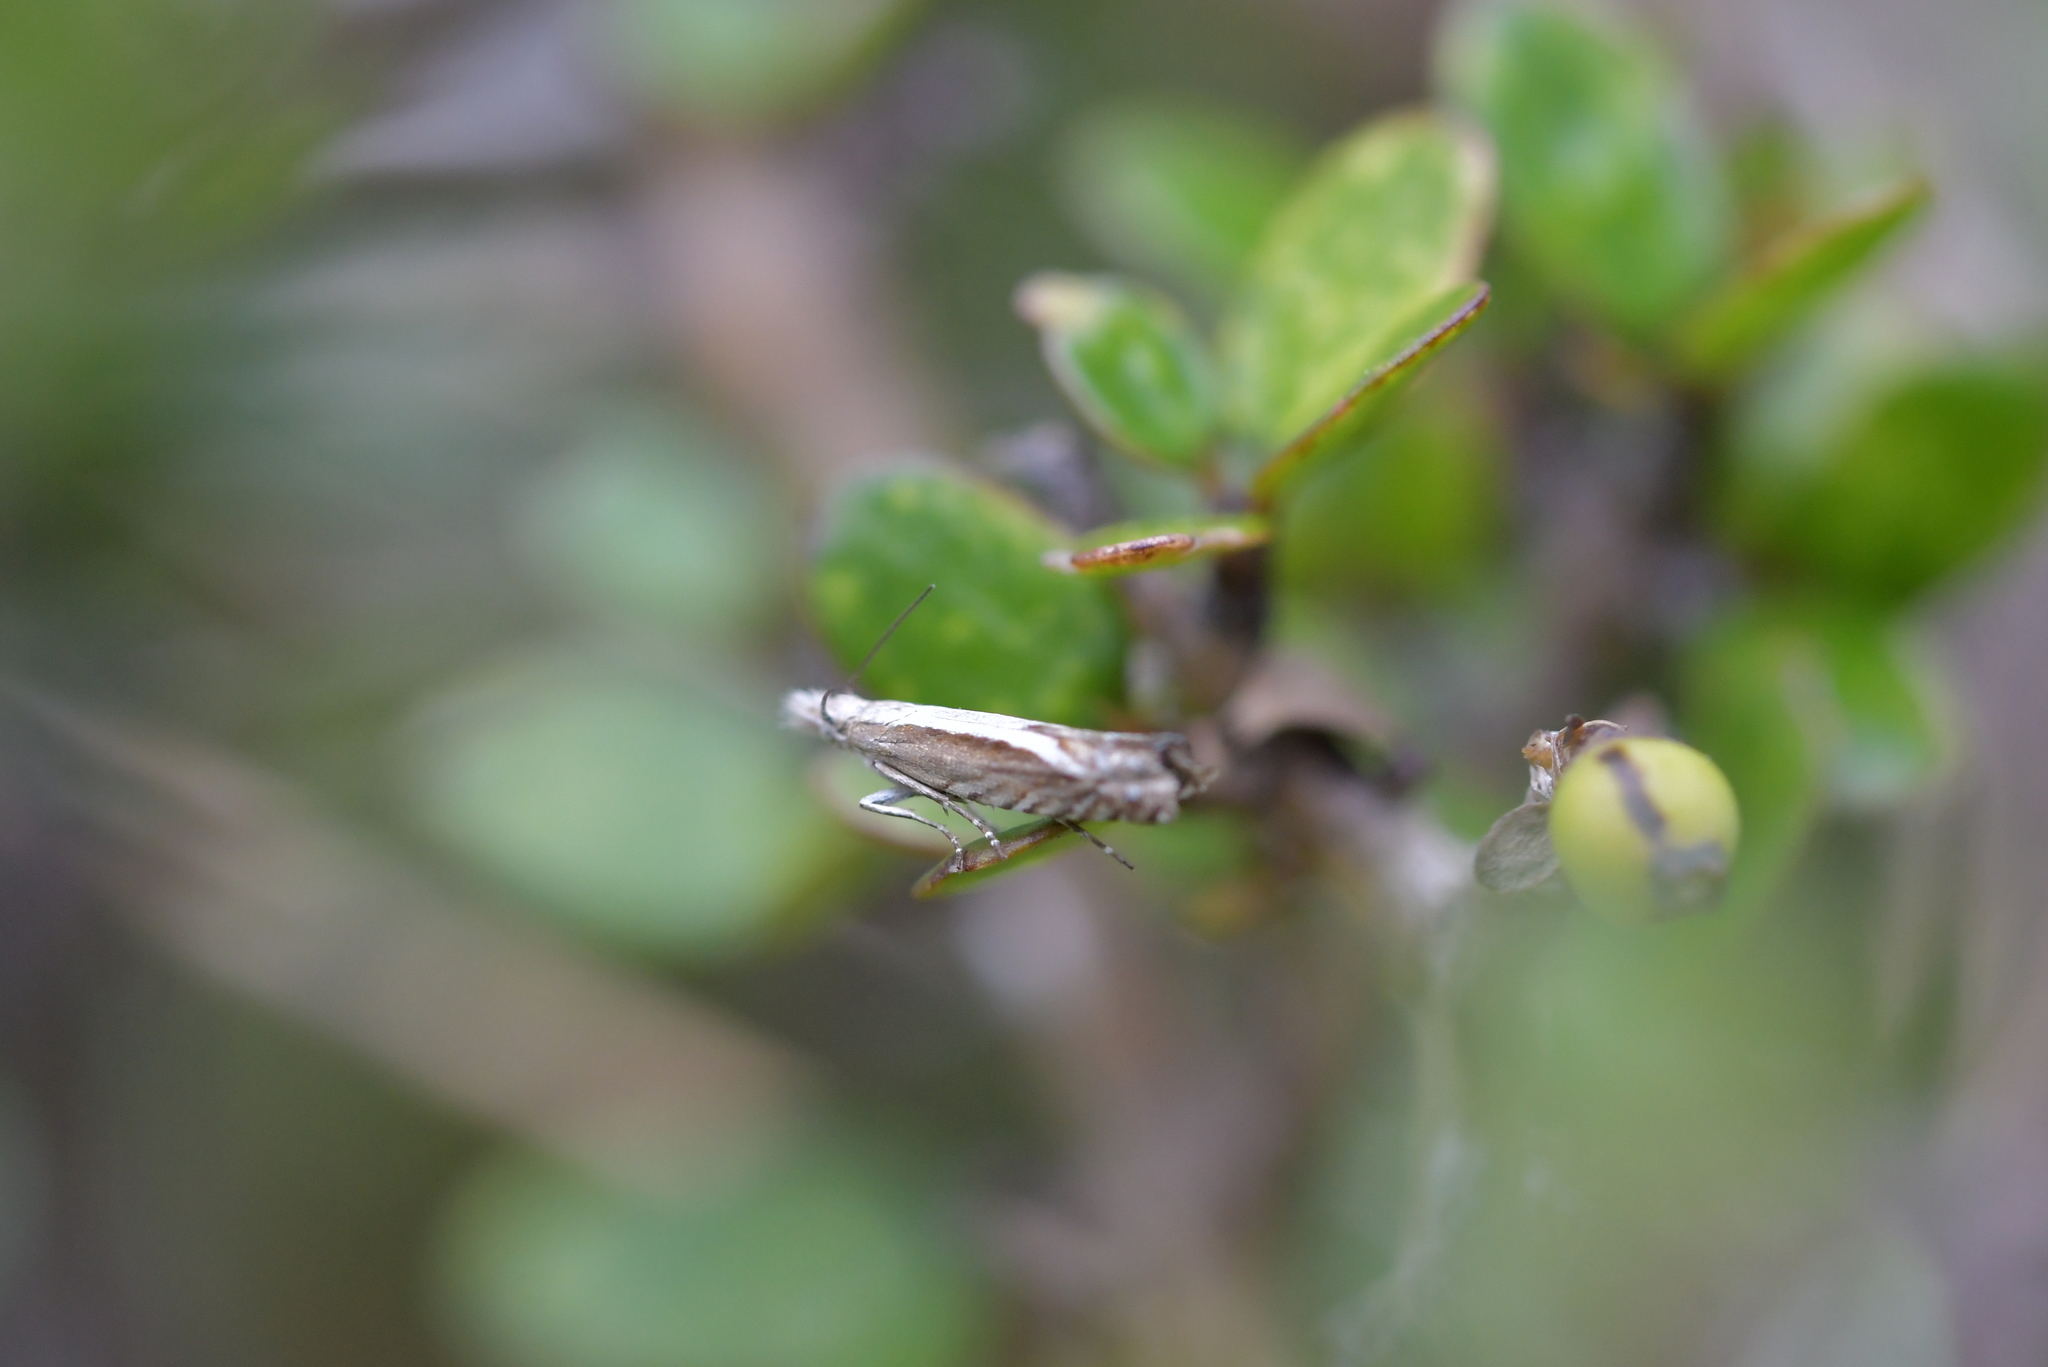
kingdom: Animalia
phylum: Arthropoda
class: Insecta
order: Lepidoptera
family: Glyphipterigidae
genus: Glyphipterix
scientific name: Glyphipterix oxymachaera
